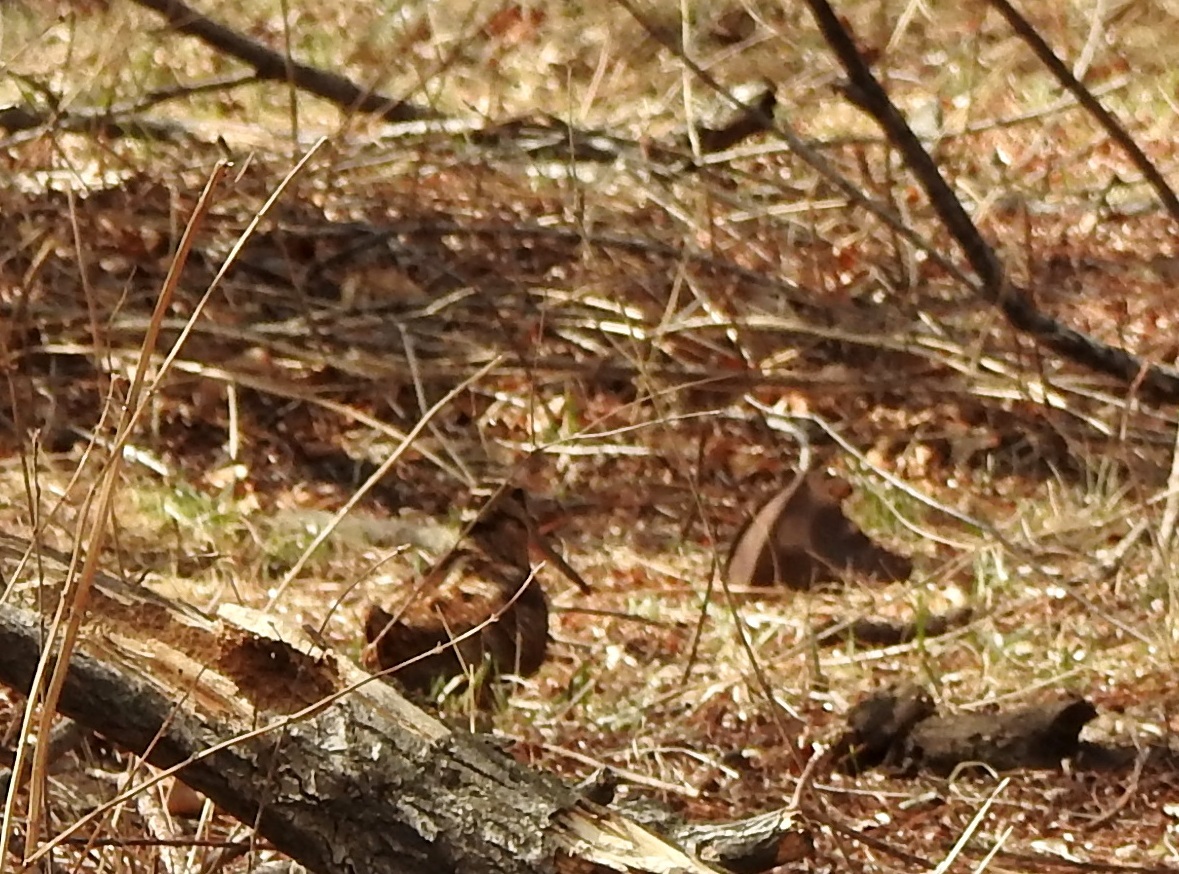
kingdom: Animalia
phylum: Chordata
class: Aves
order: Charadriiformes
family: Scolopacidae
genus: Scolopax
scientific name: Scolopax rusticola
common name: Eurasian woodcock
